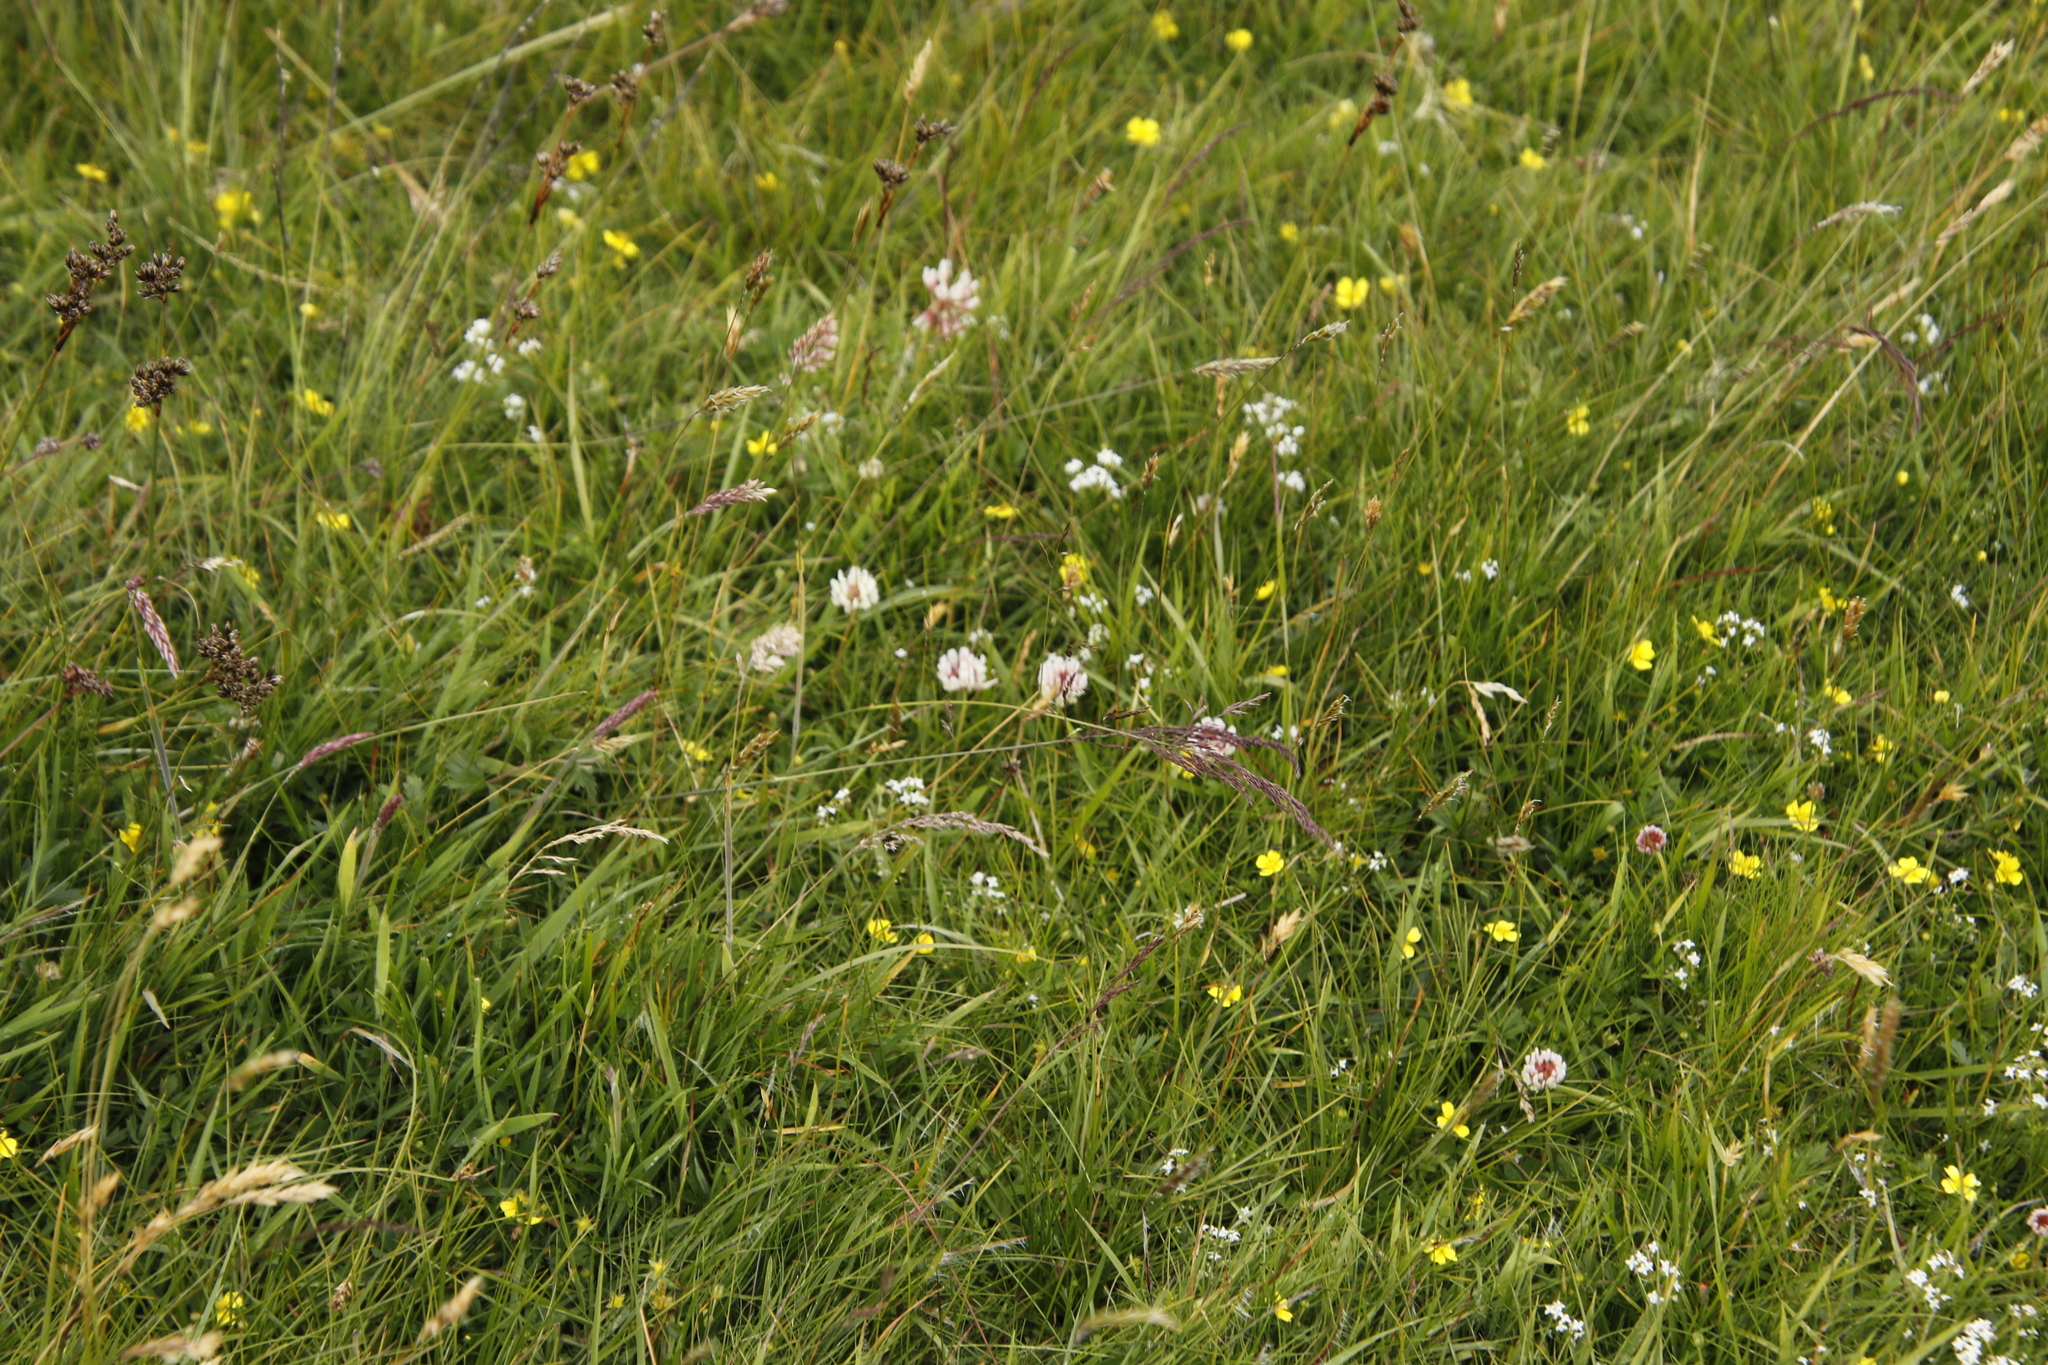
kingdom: Plantae
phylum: Tracheophyta
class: Magnoliopsida
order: Fabales
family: Fabaceae
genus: Trifolium
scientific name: Trifolium repens
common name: White clover
